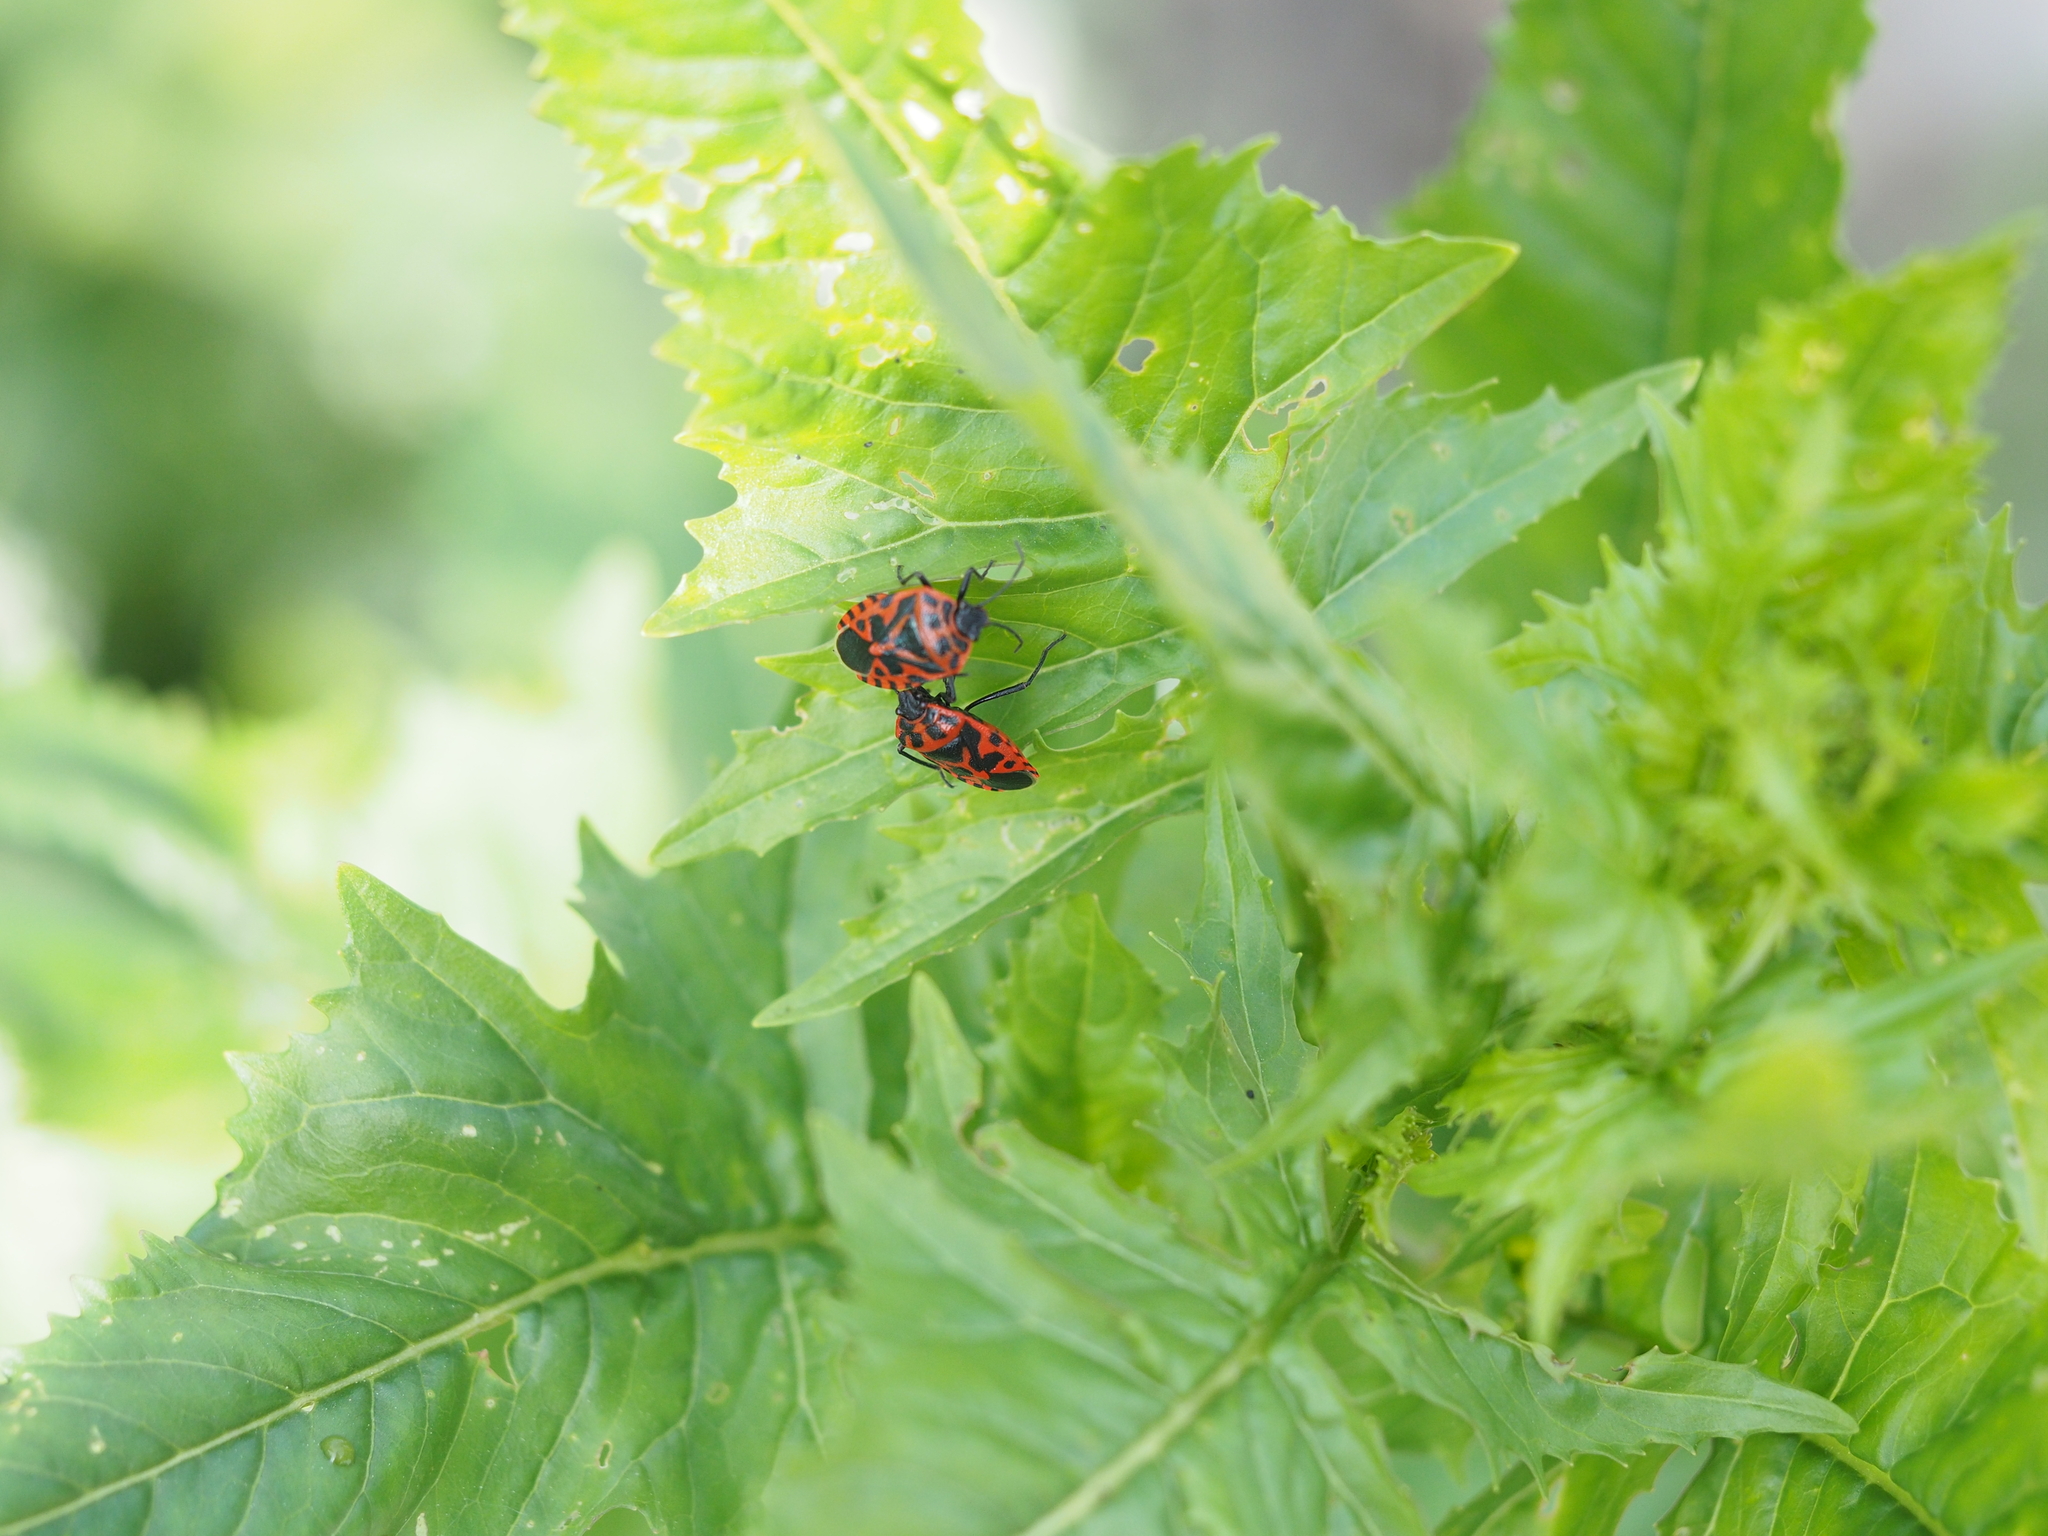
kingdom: Animalia
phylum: Arthropoda
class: Insecta
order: Hemiptera
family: Pentatomidae
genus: Eurydema
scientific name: Eurydema ventralis
